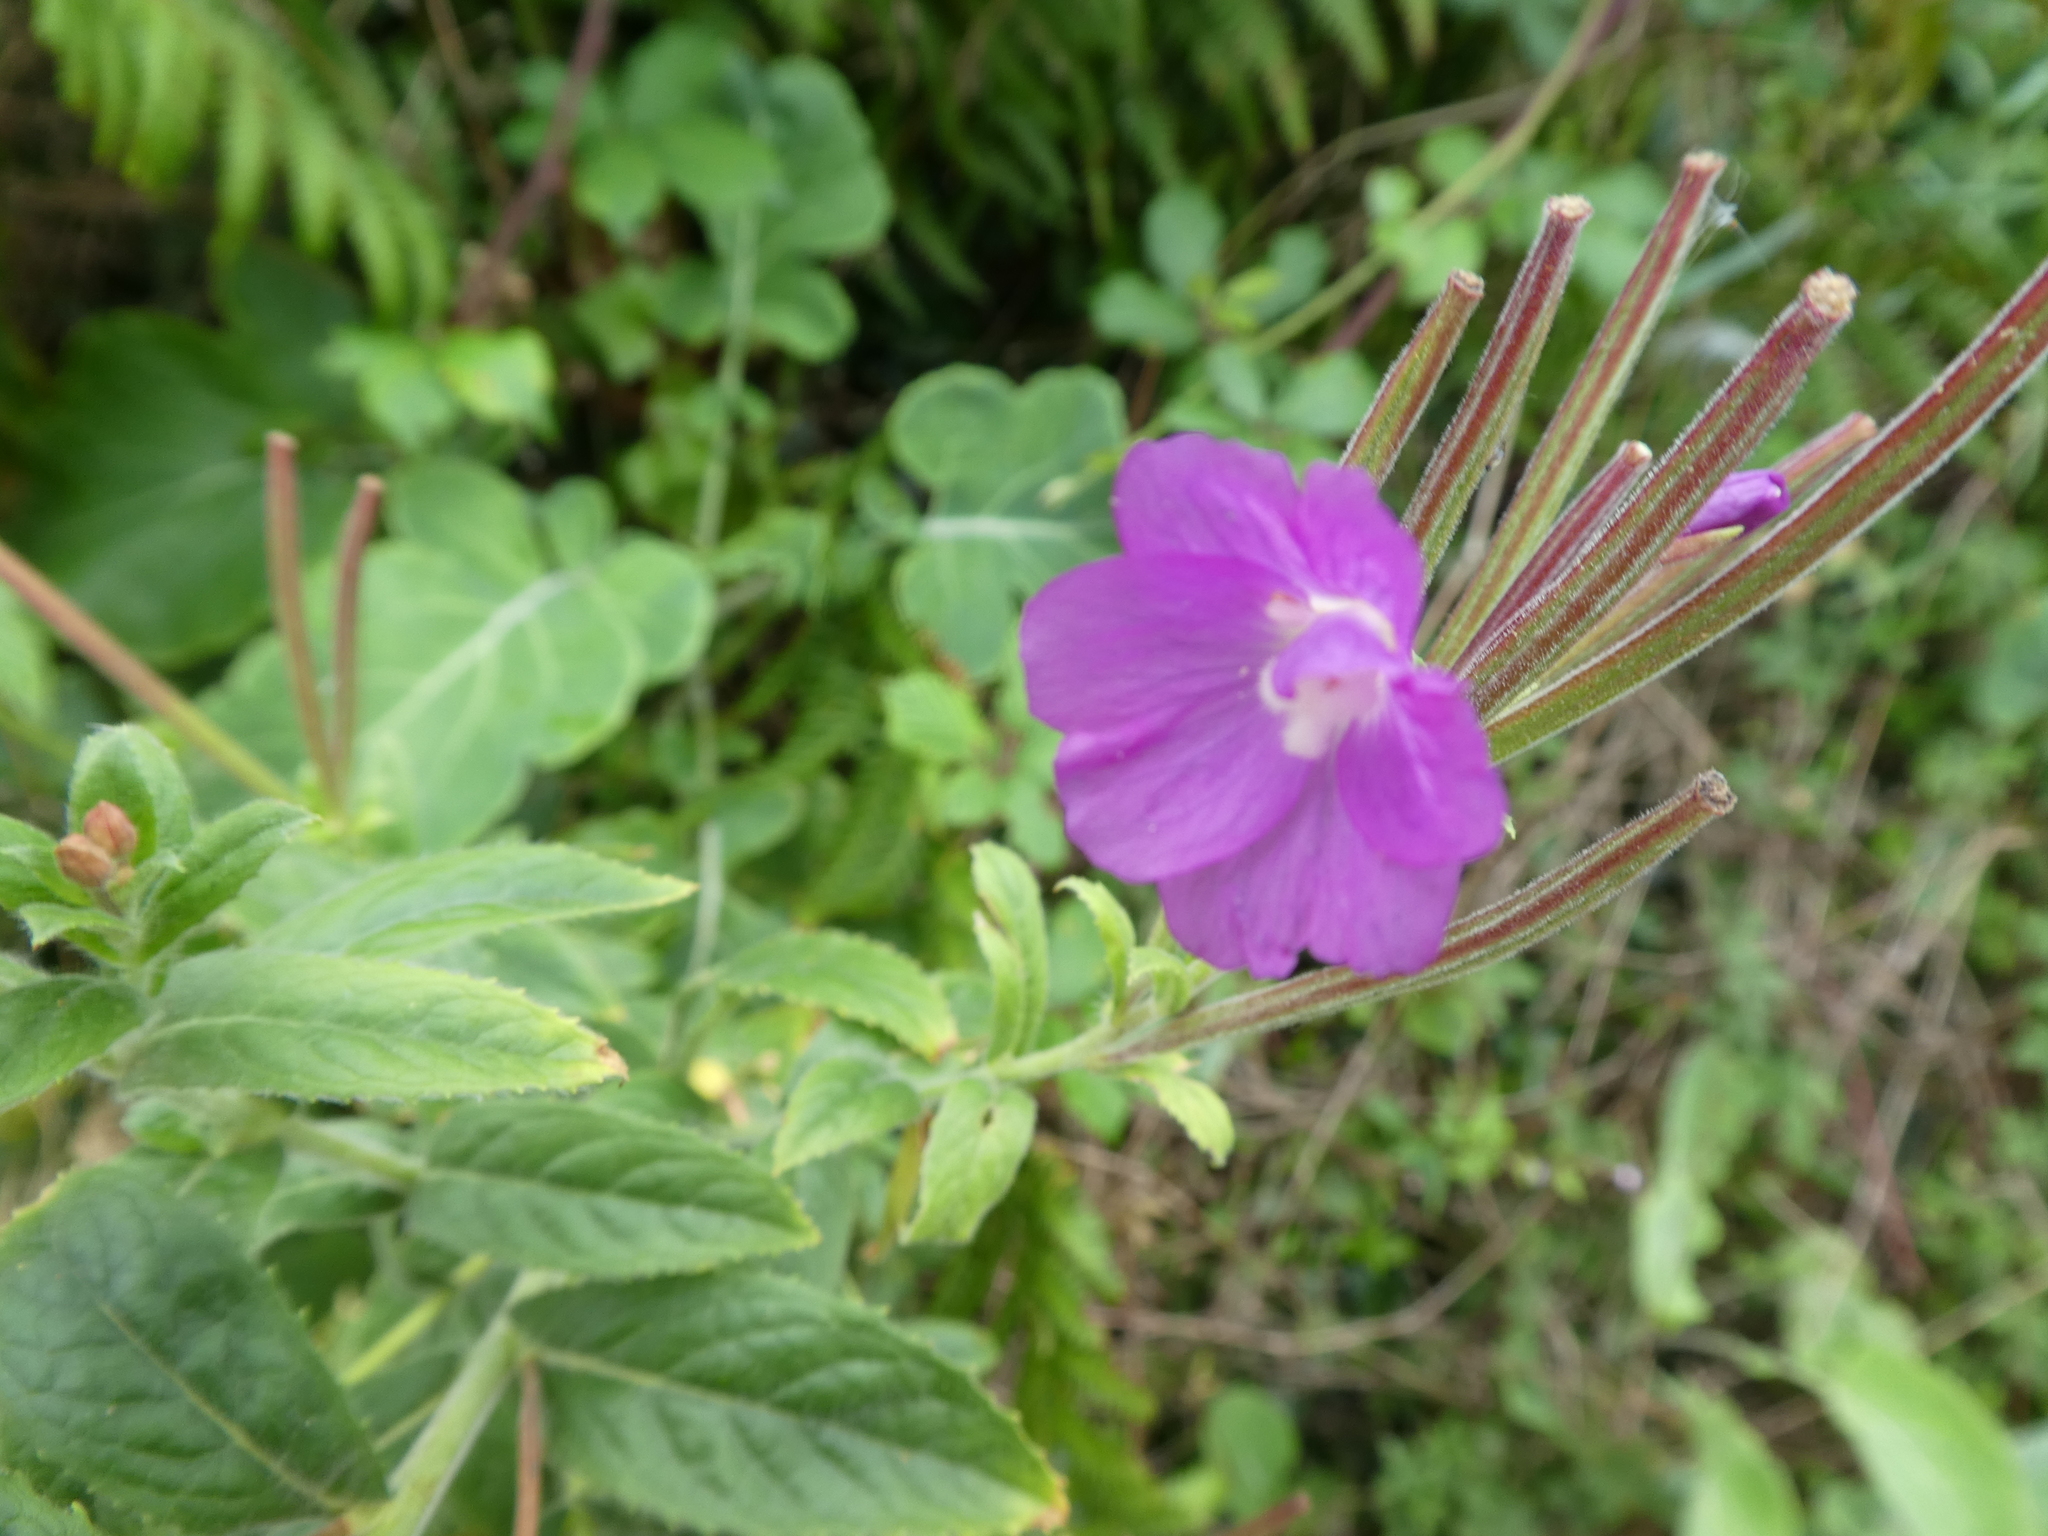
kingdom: Plantae
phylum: Tracheophyta
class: Magnoliopsida
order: Myrtales
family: Onagraceae
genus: Epilobium
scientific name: Epilobium hirsutum
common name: Great willowherb
